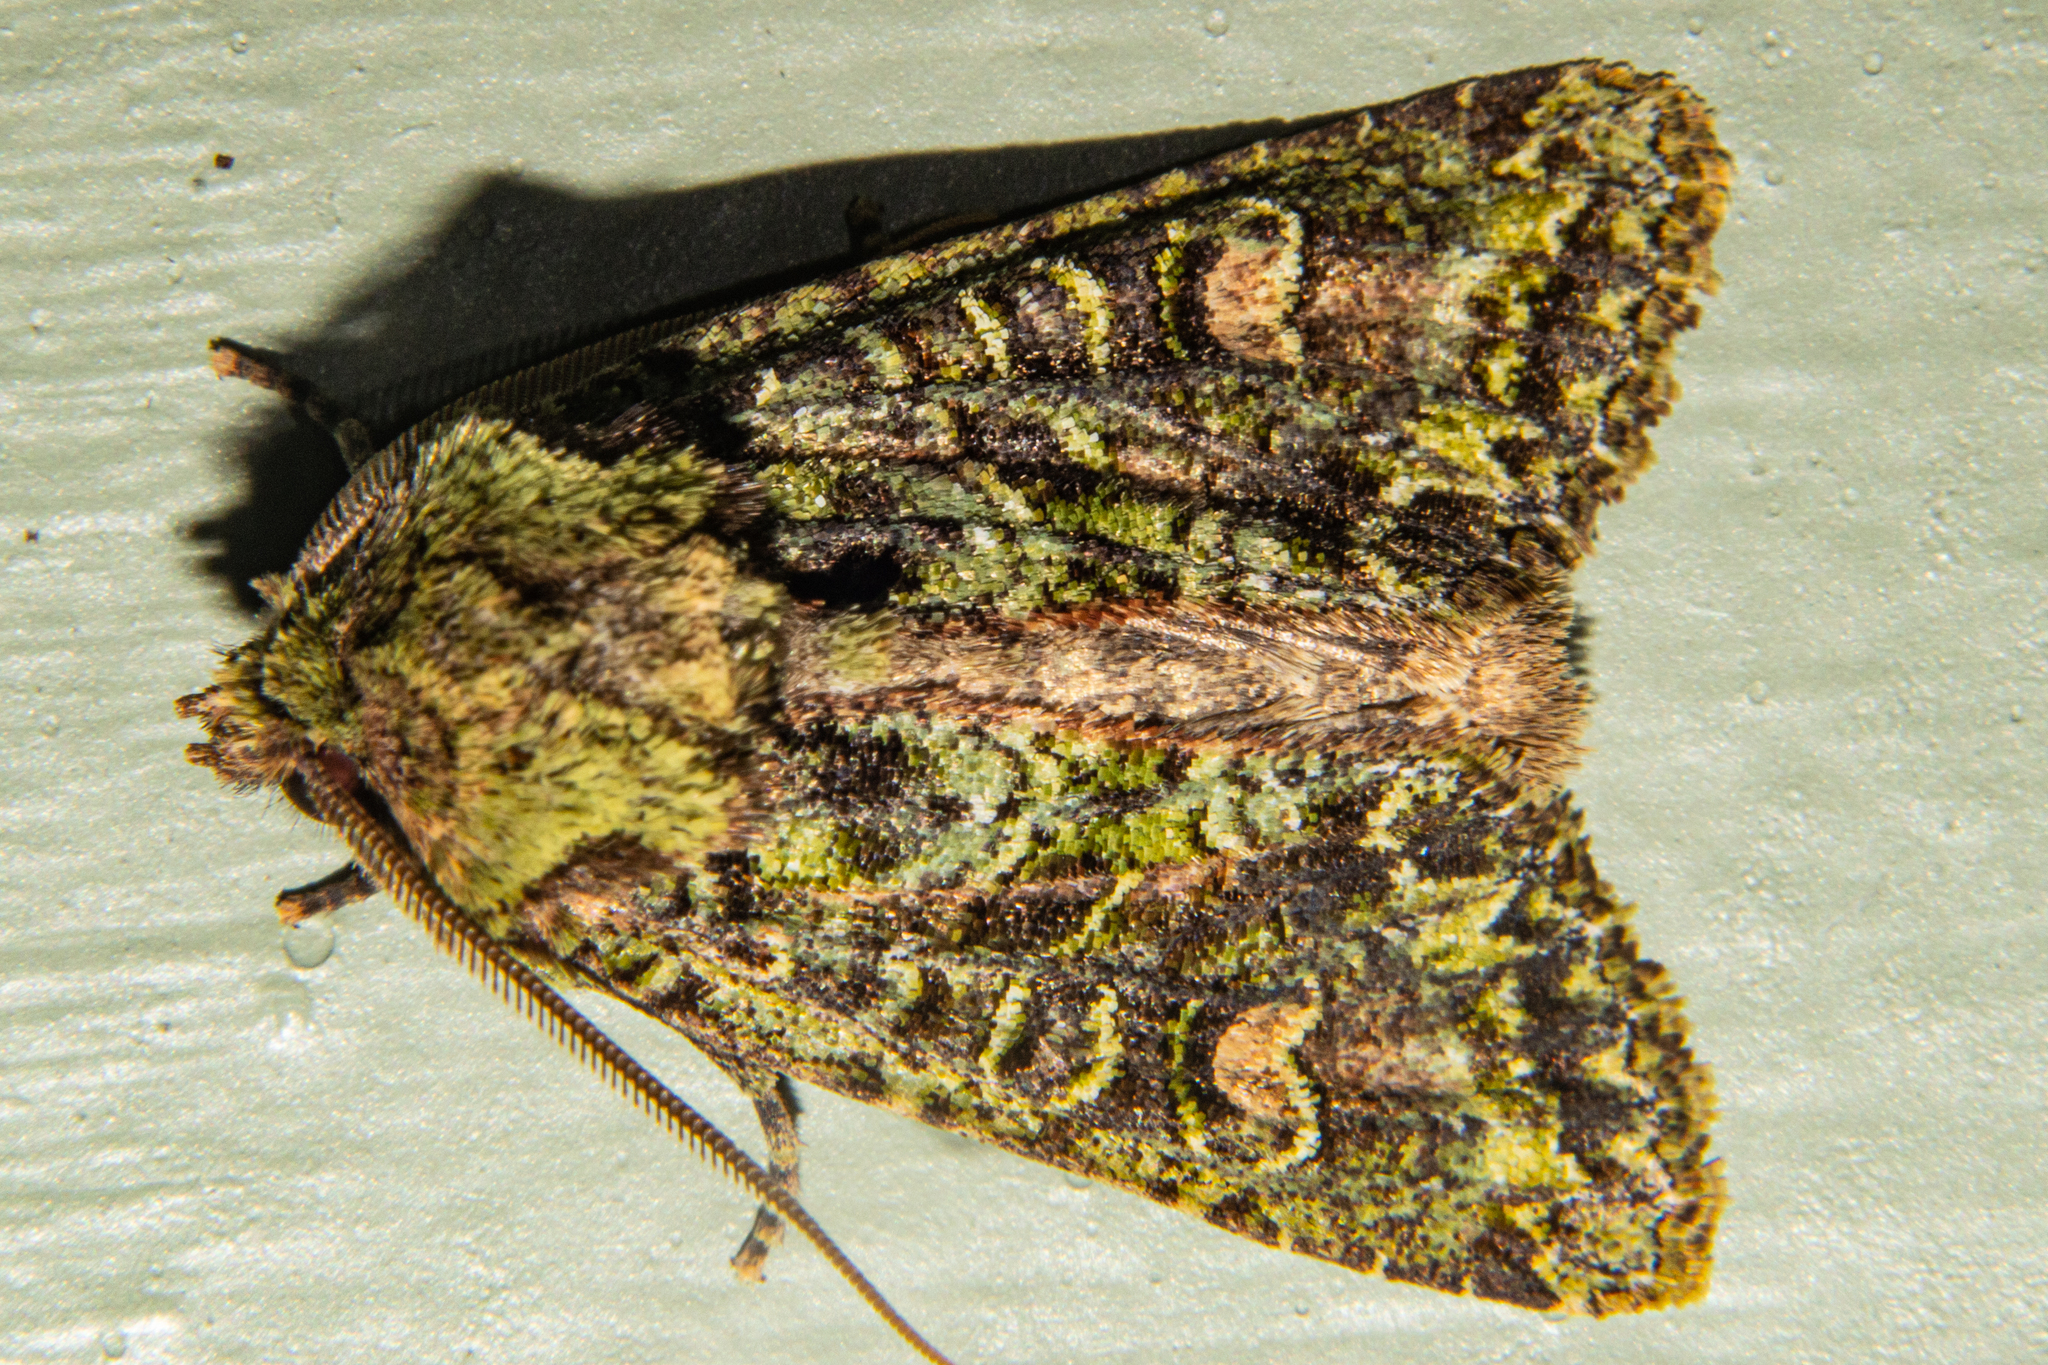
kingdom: Animalia
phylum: Arthropoda
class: Insecta
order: Lepidoptera
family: Noctuidae
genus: Ichneutica
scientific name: Ichneutica
